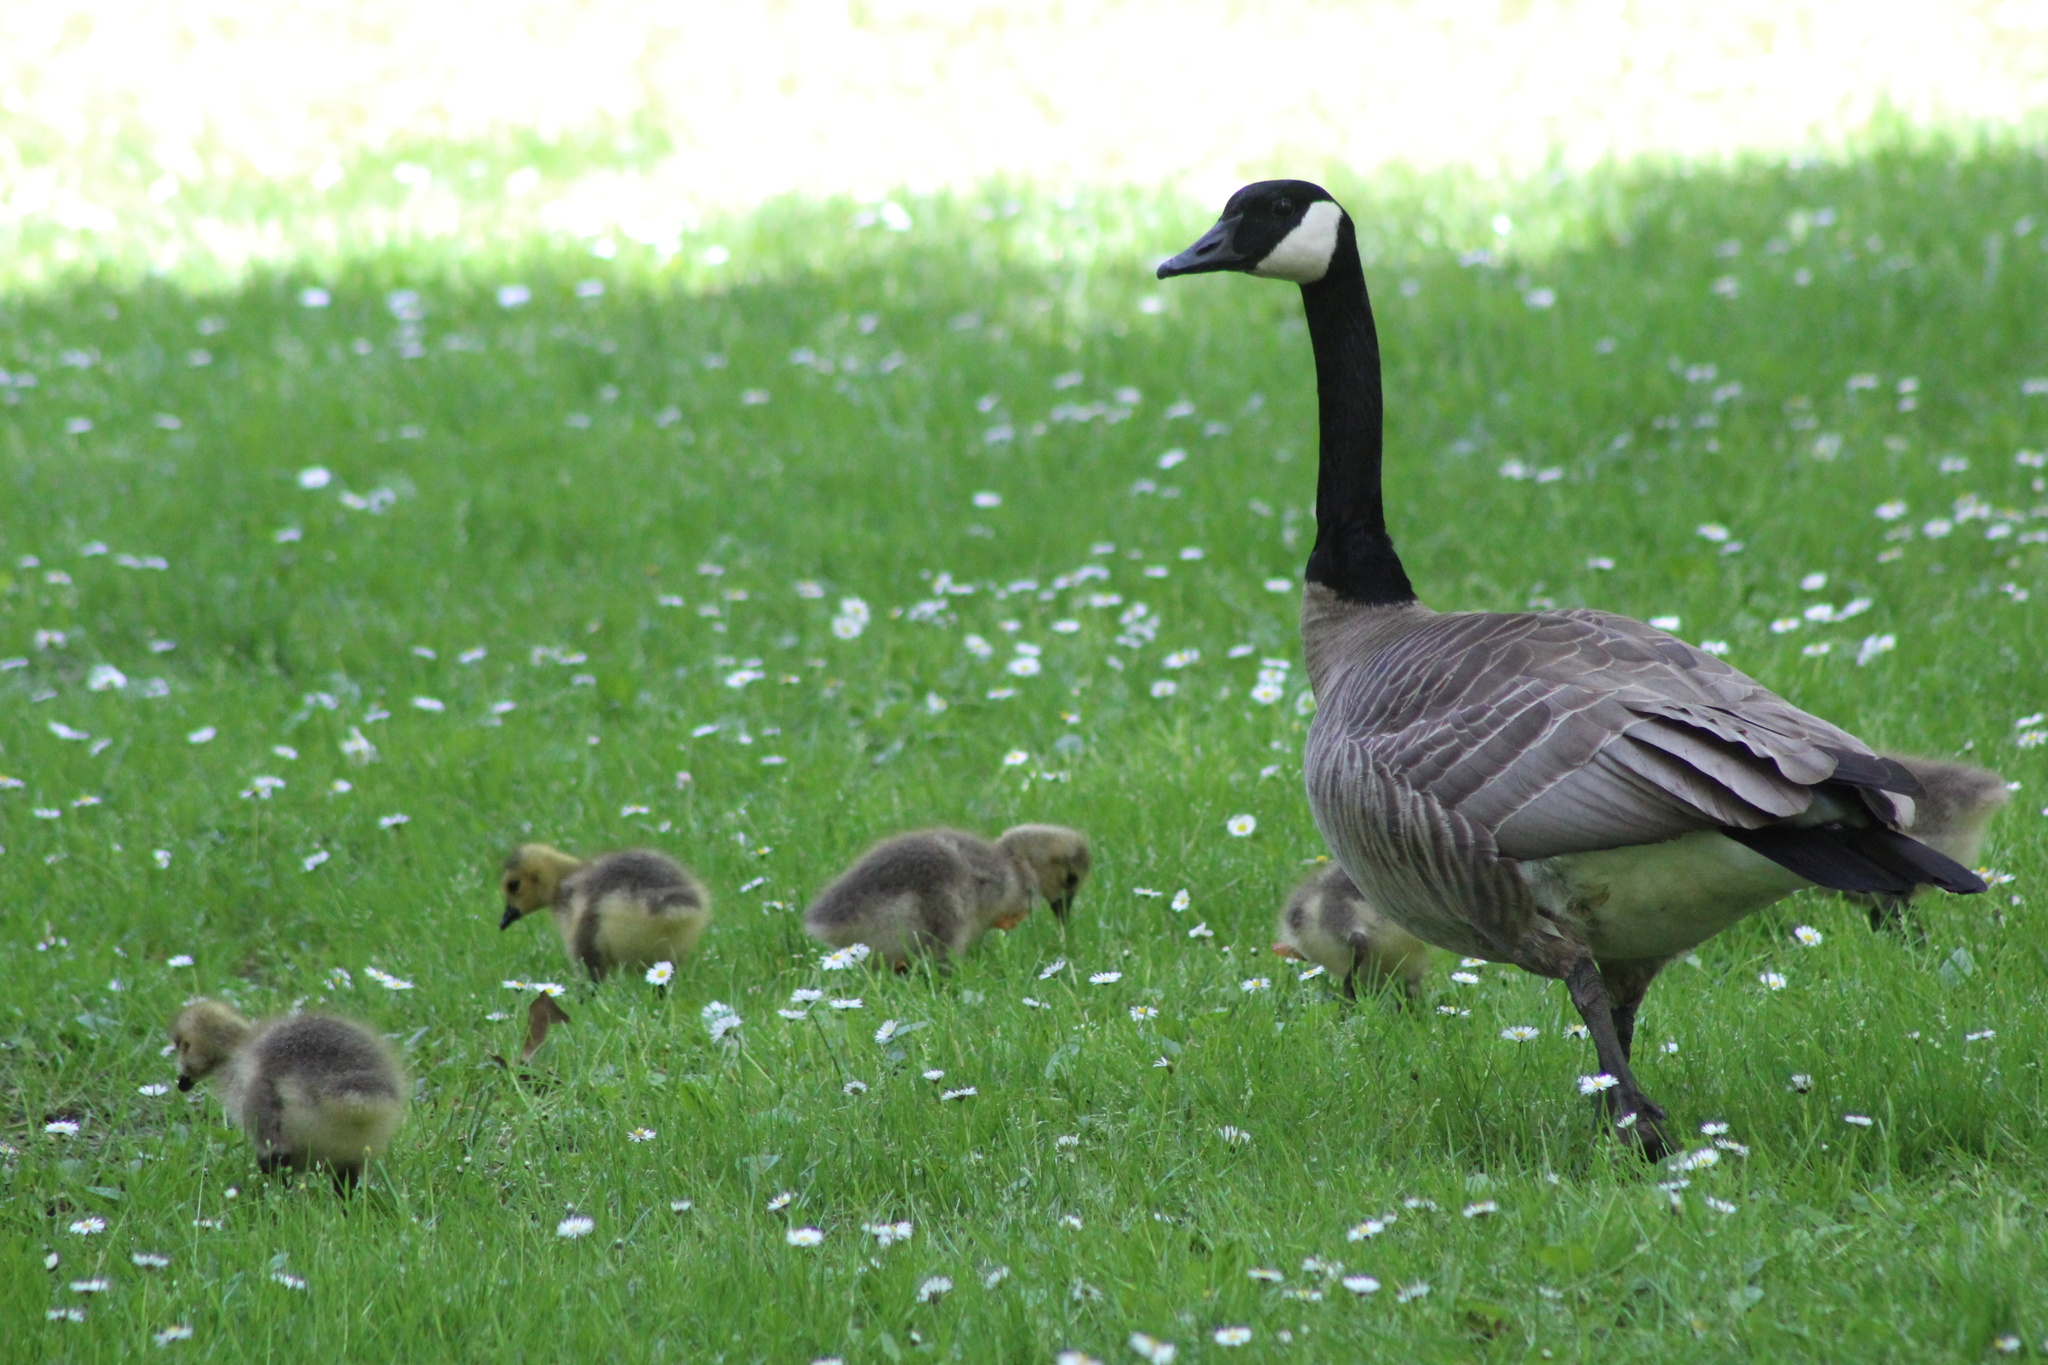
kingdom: Animalia
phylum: Chordata
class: Aves
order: Anseriformes
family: Anatidae
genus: Branta
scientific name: Branta canadensis
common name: Canada goose
